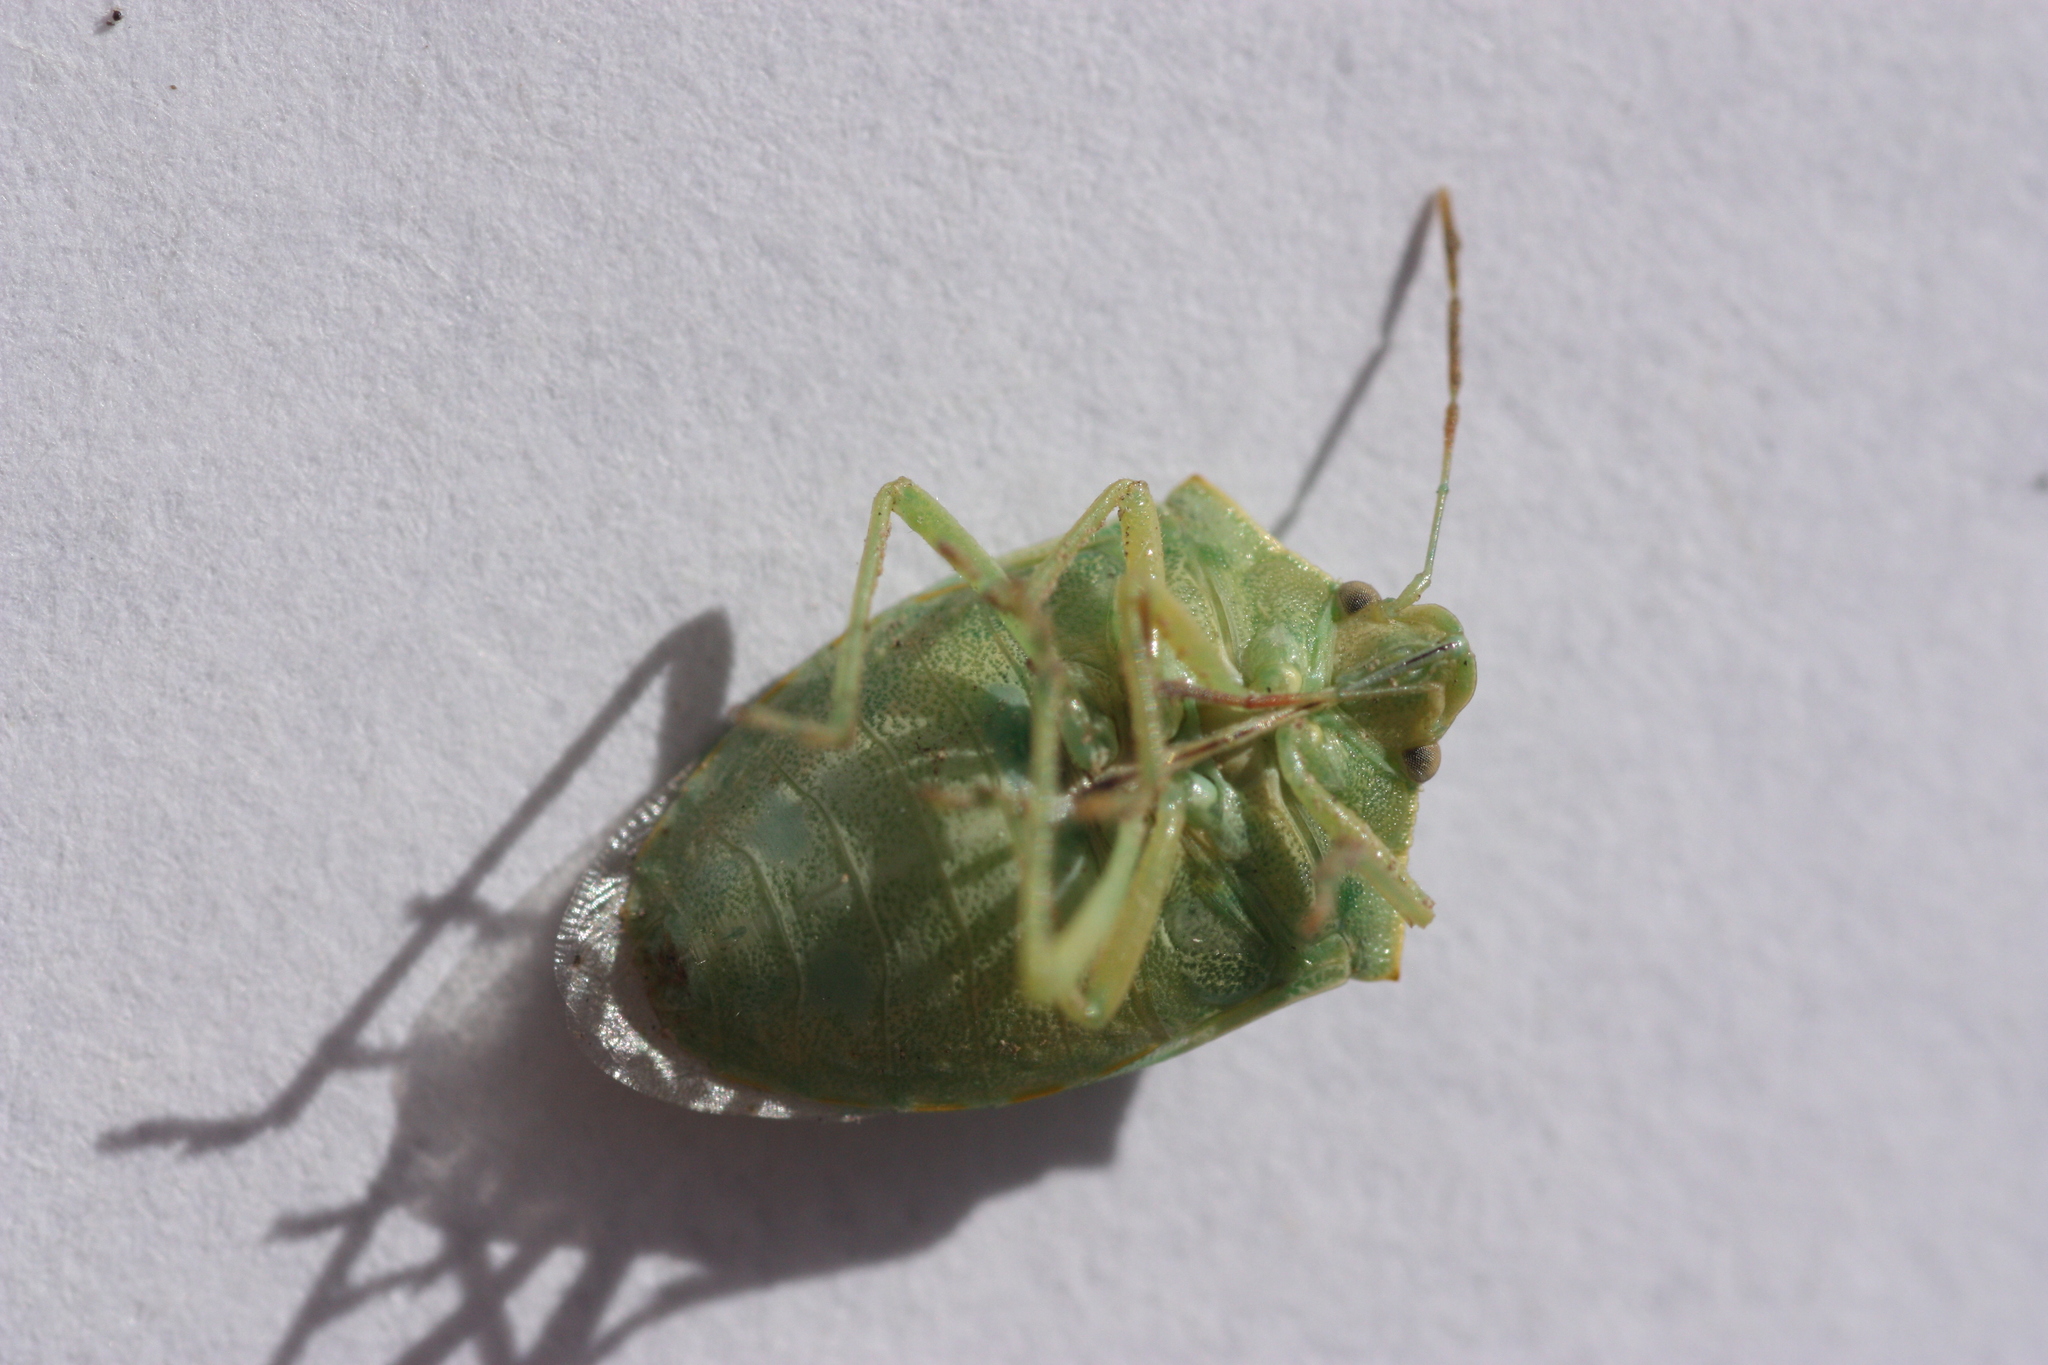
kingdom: Animalia
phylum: Arthropoda
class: Insecta
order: Hemiptera
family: Pentatomidae
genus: Thyanta
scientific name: Thyanta accerra
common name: Stink bug
